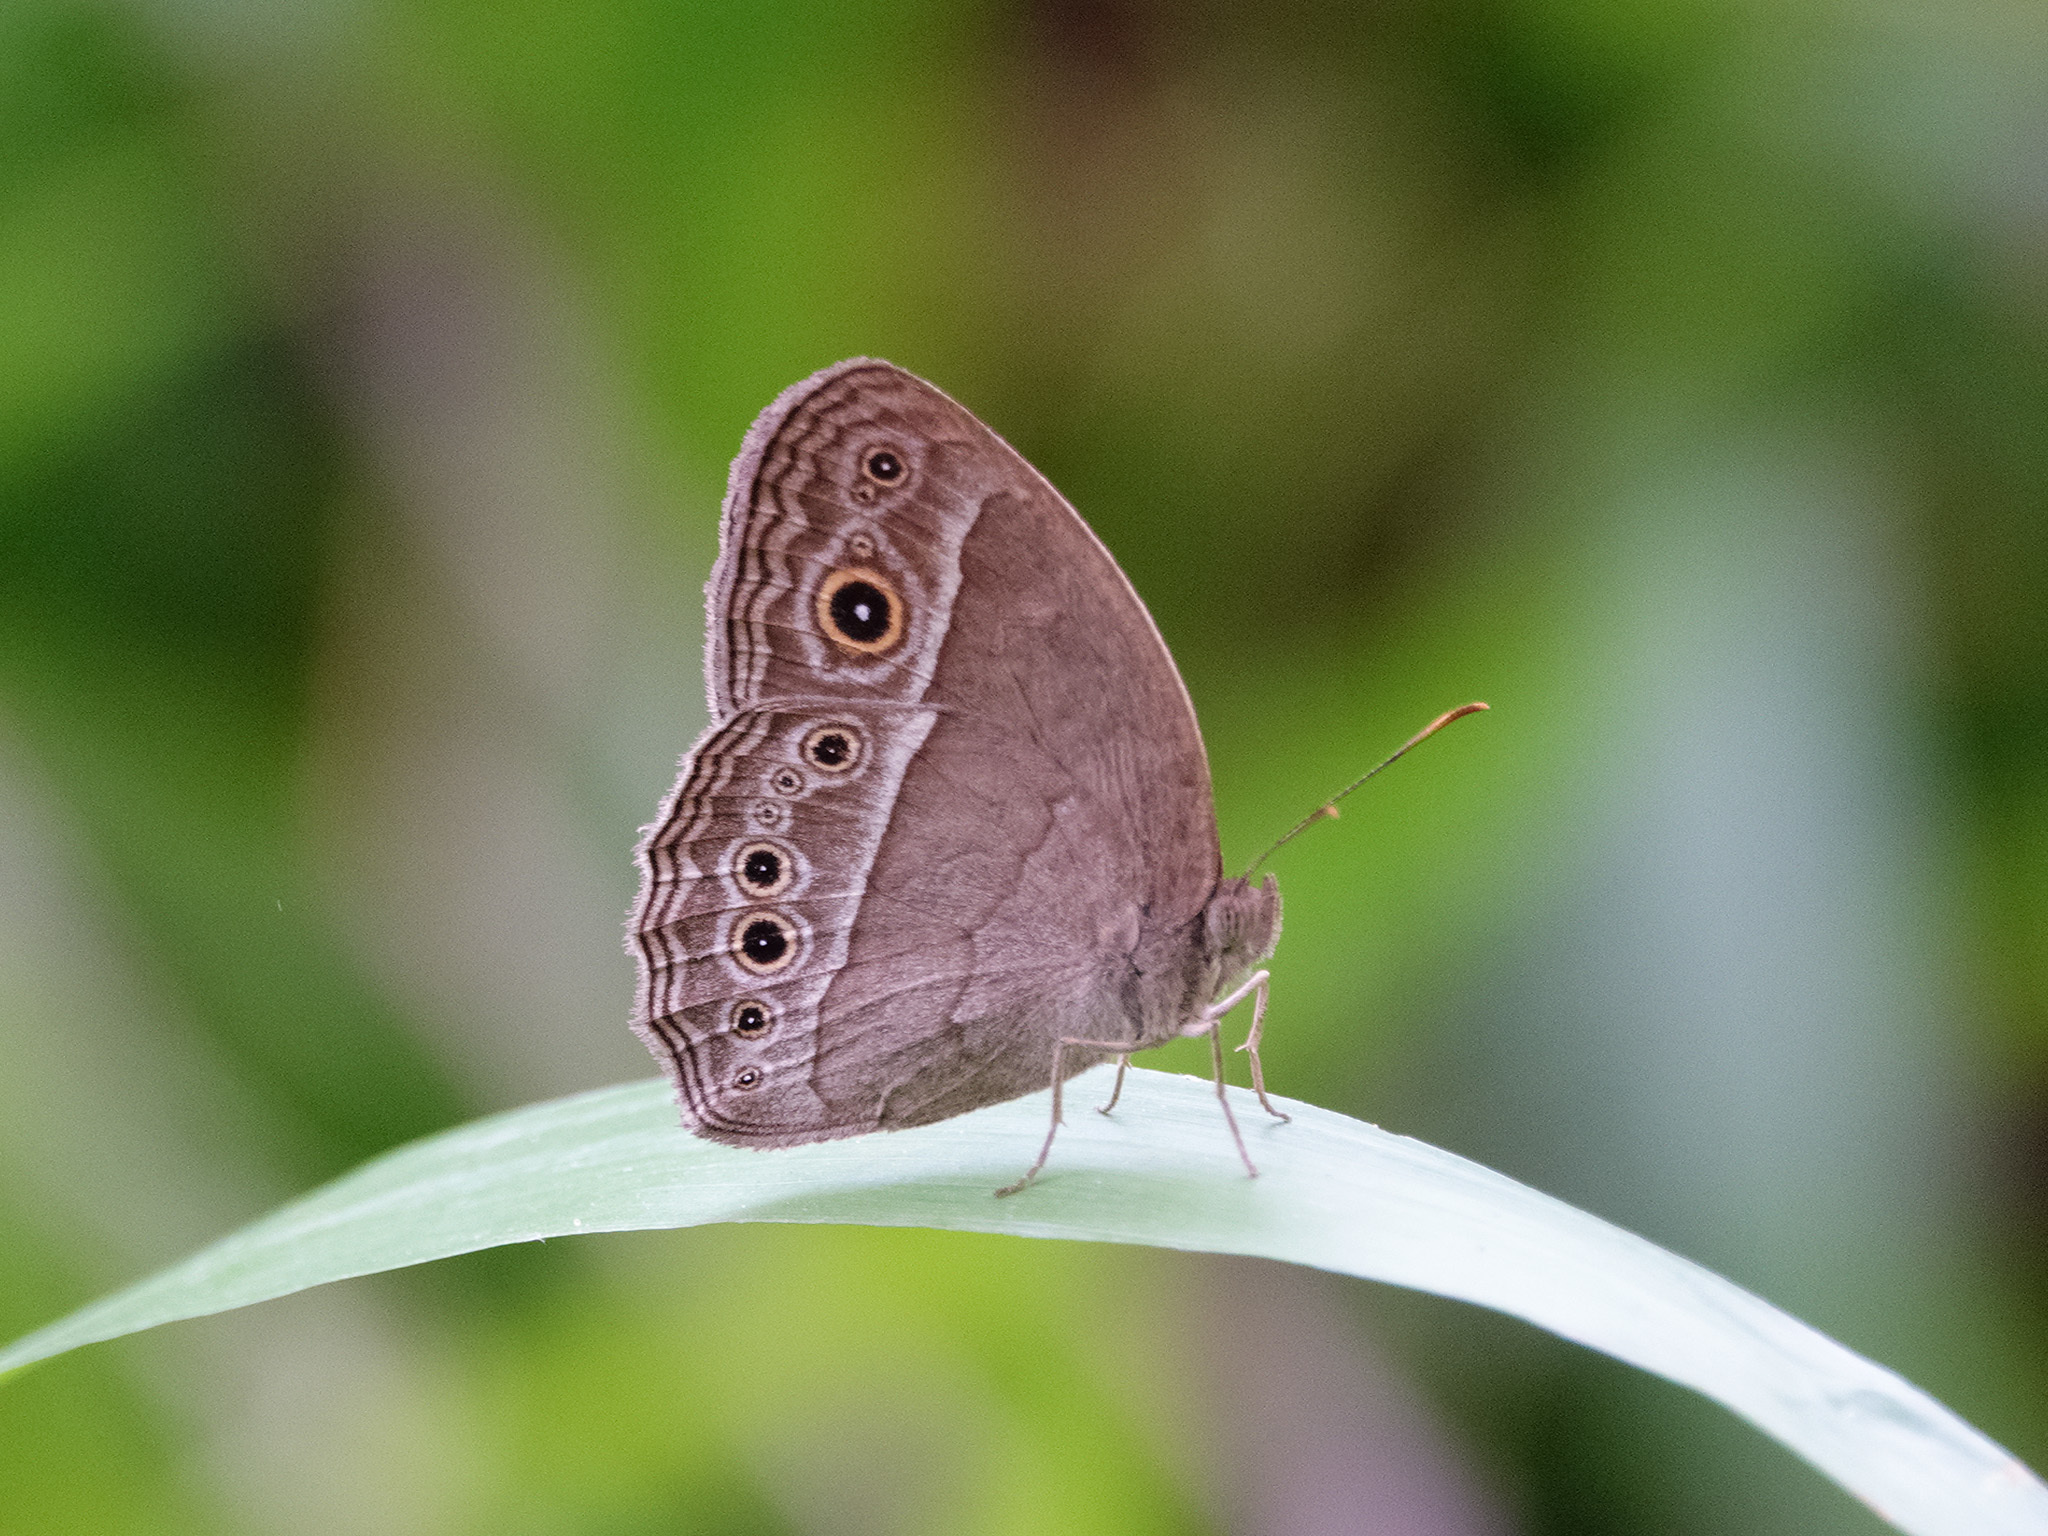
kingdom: Animalia
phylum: Arthropoda
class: Insecta
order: Lepidoptera
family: Nymphalidae
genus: Mycalesis
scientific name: Mycalesis perseoides
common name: Burmese bushbrown
